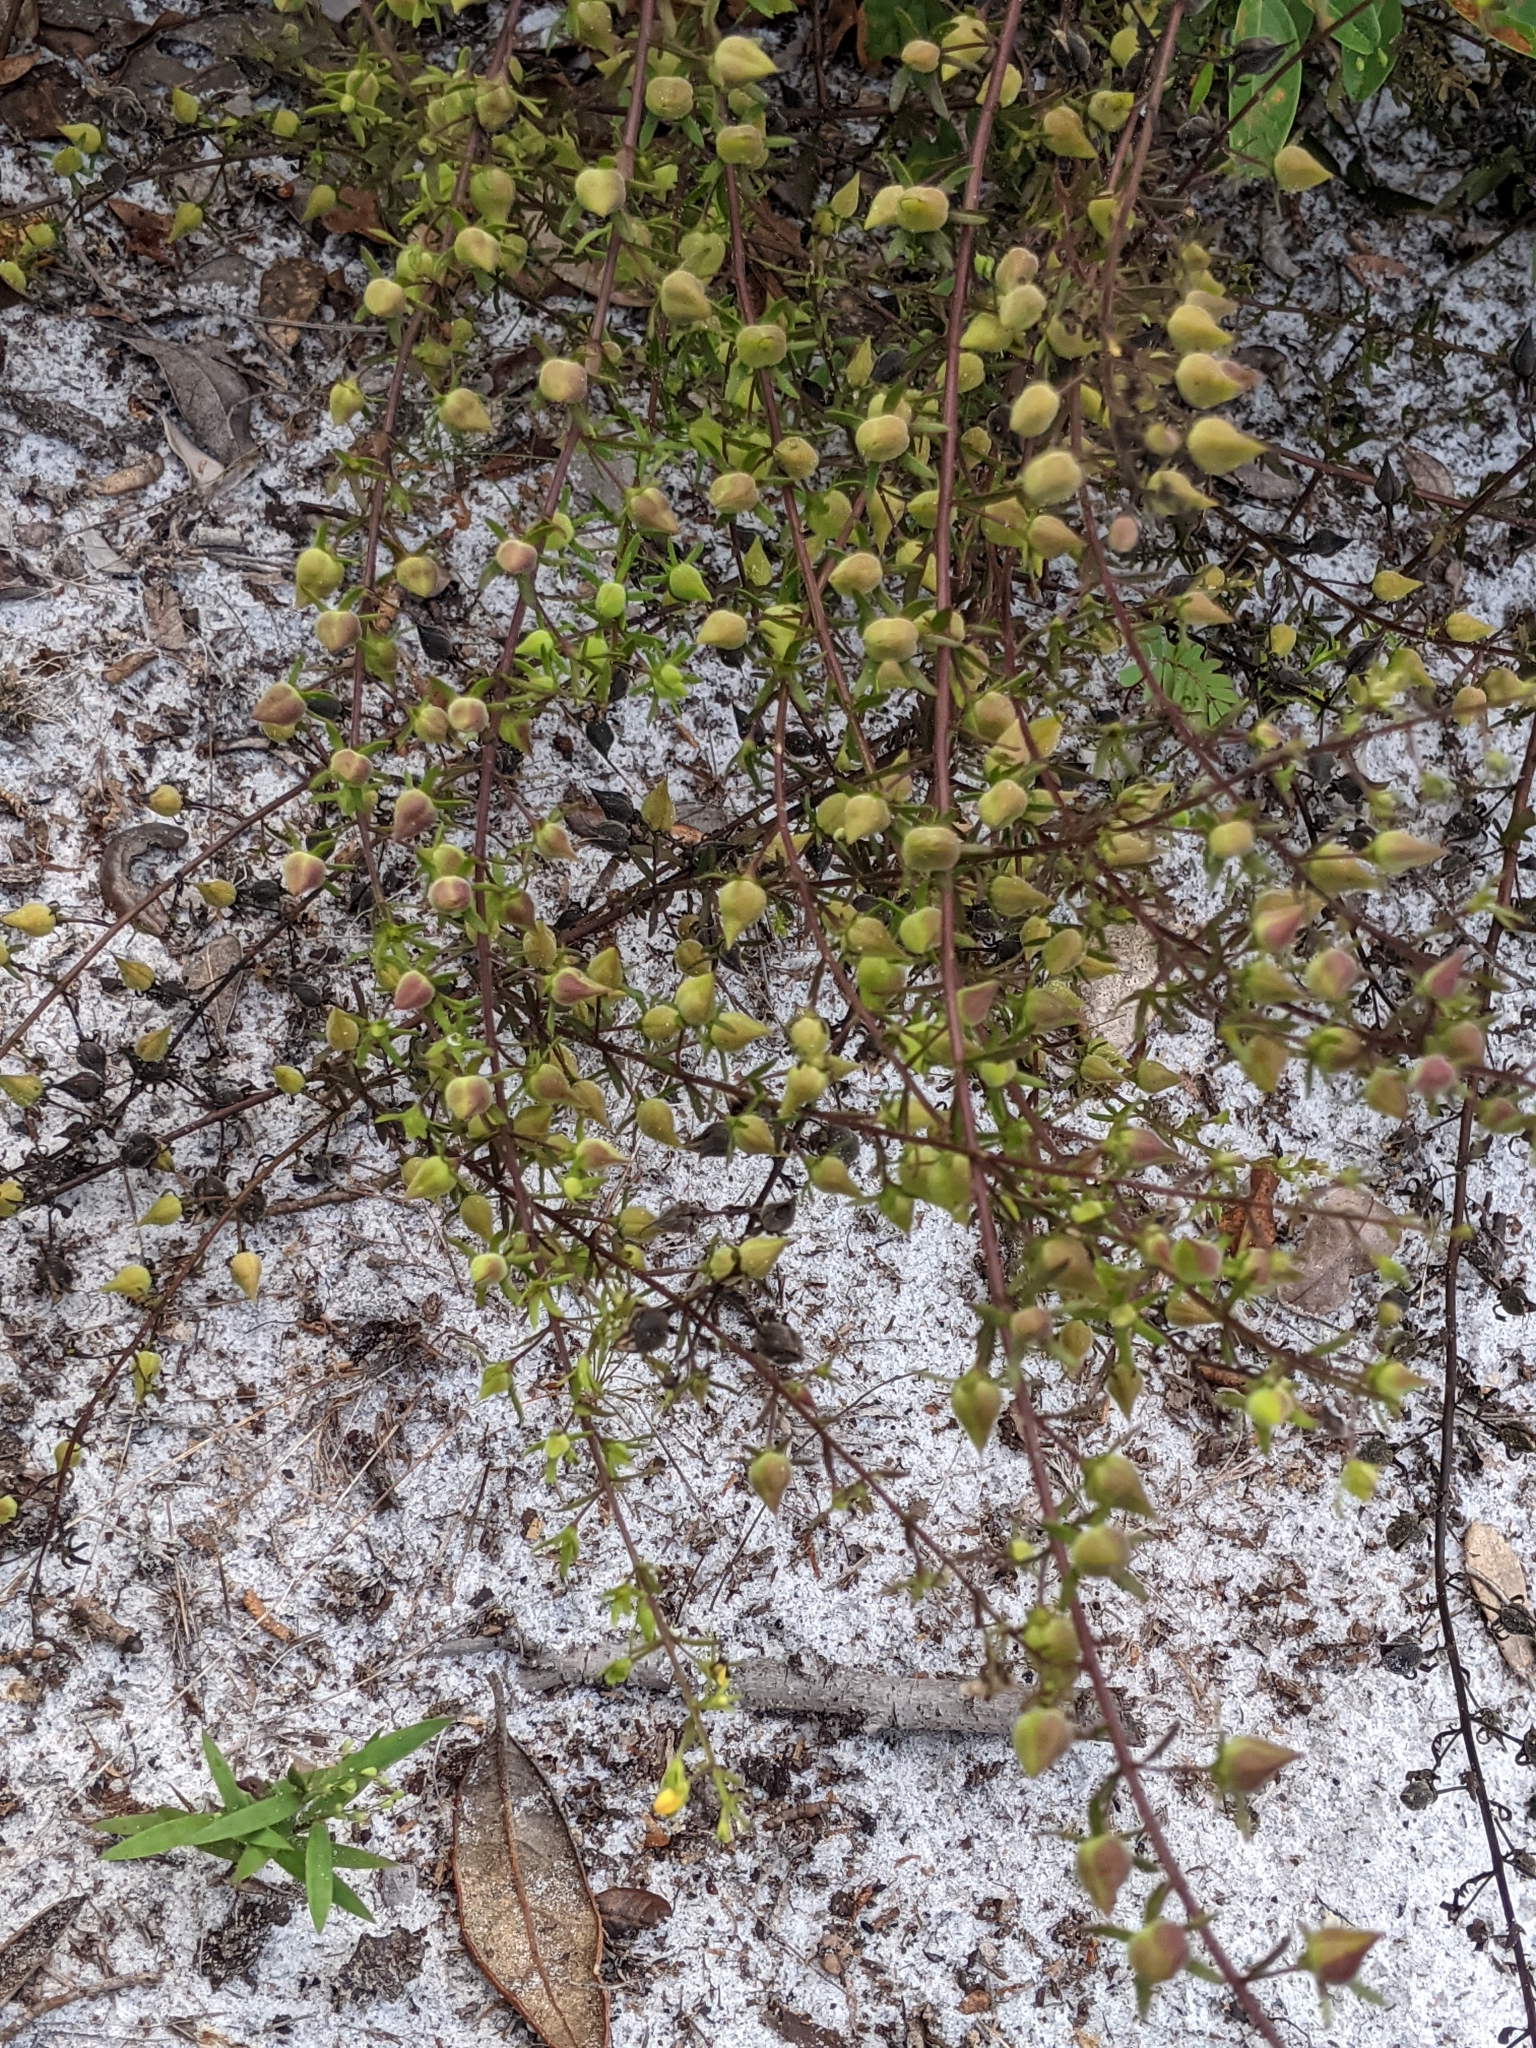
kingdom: Plantae
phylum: Tracheophyta
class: Magnoliopsida
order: Lamiales
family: Orobanchaceae
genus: Seymeria
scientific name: Seymeria pectinata
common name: Piedmont black-senna
